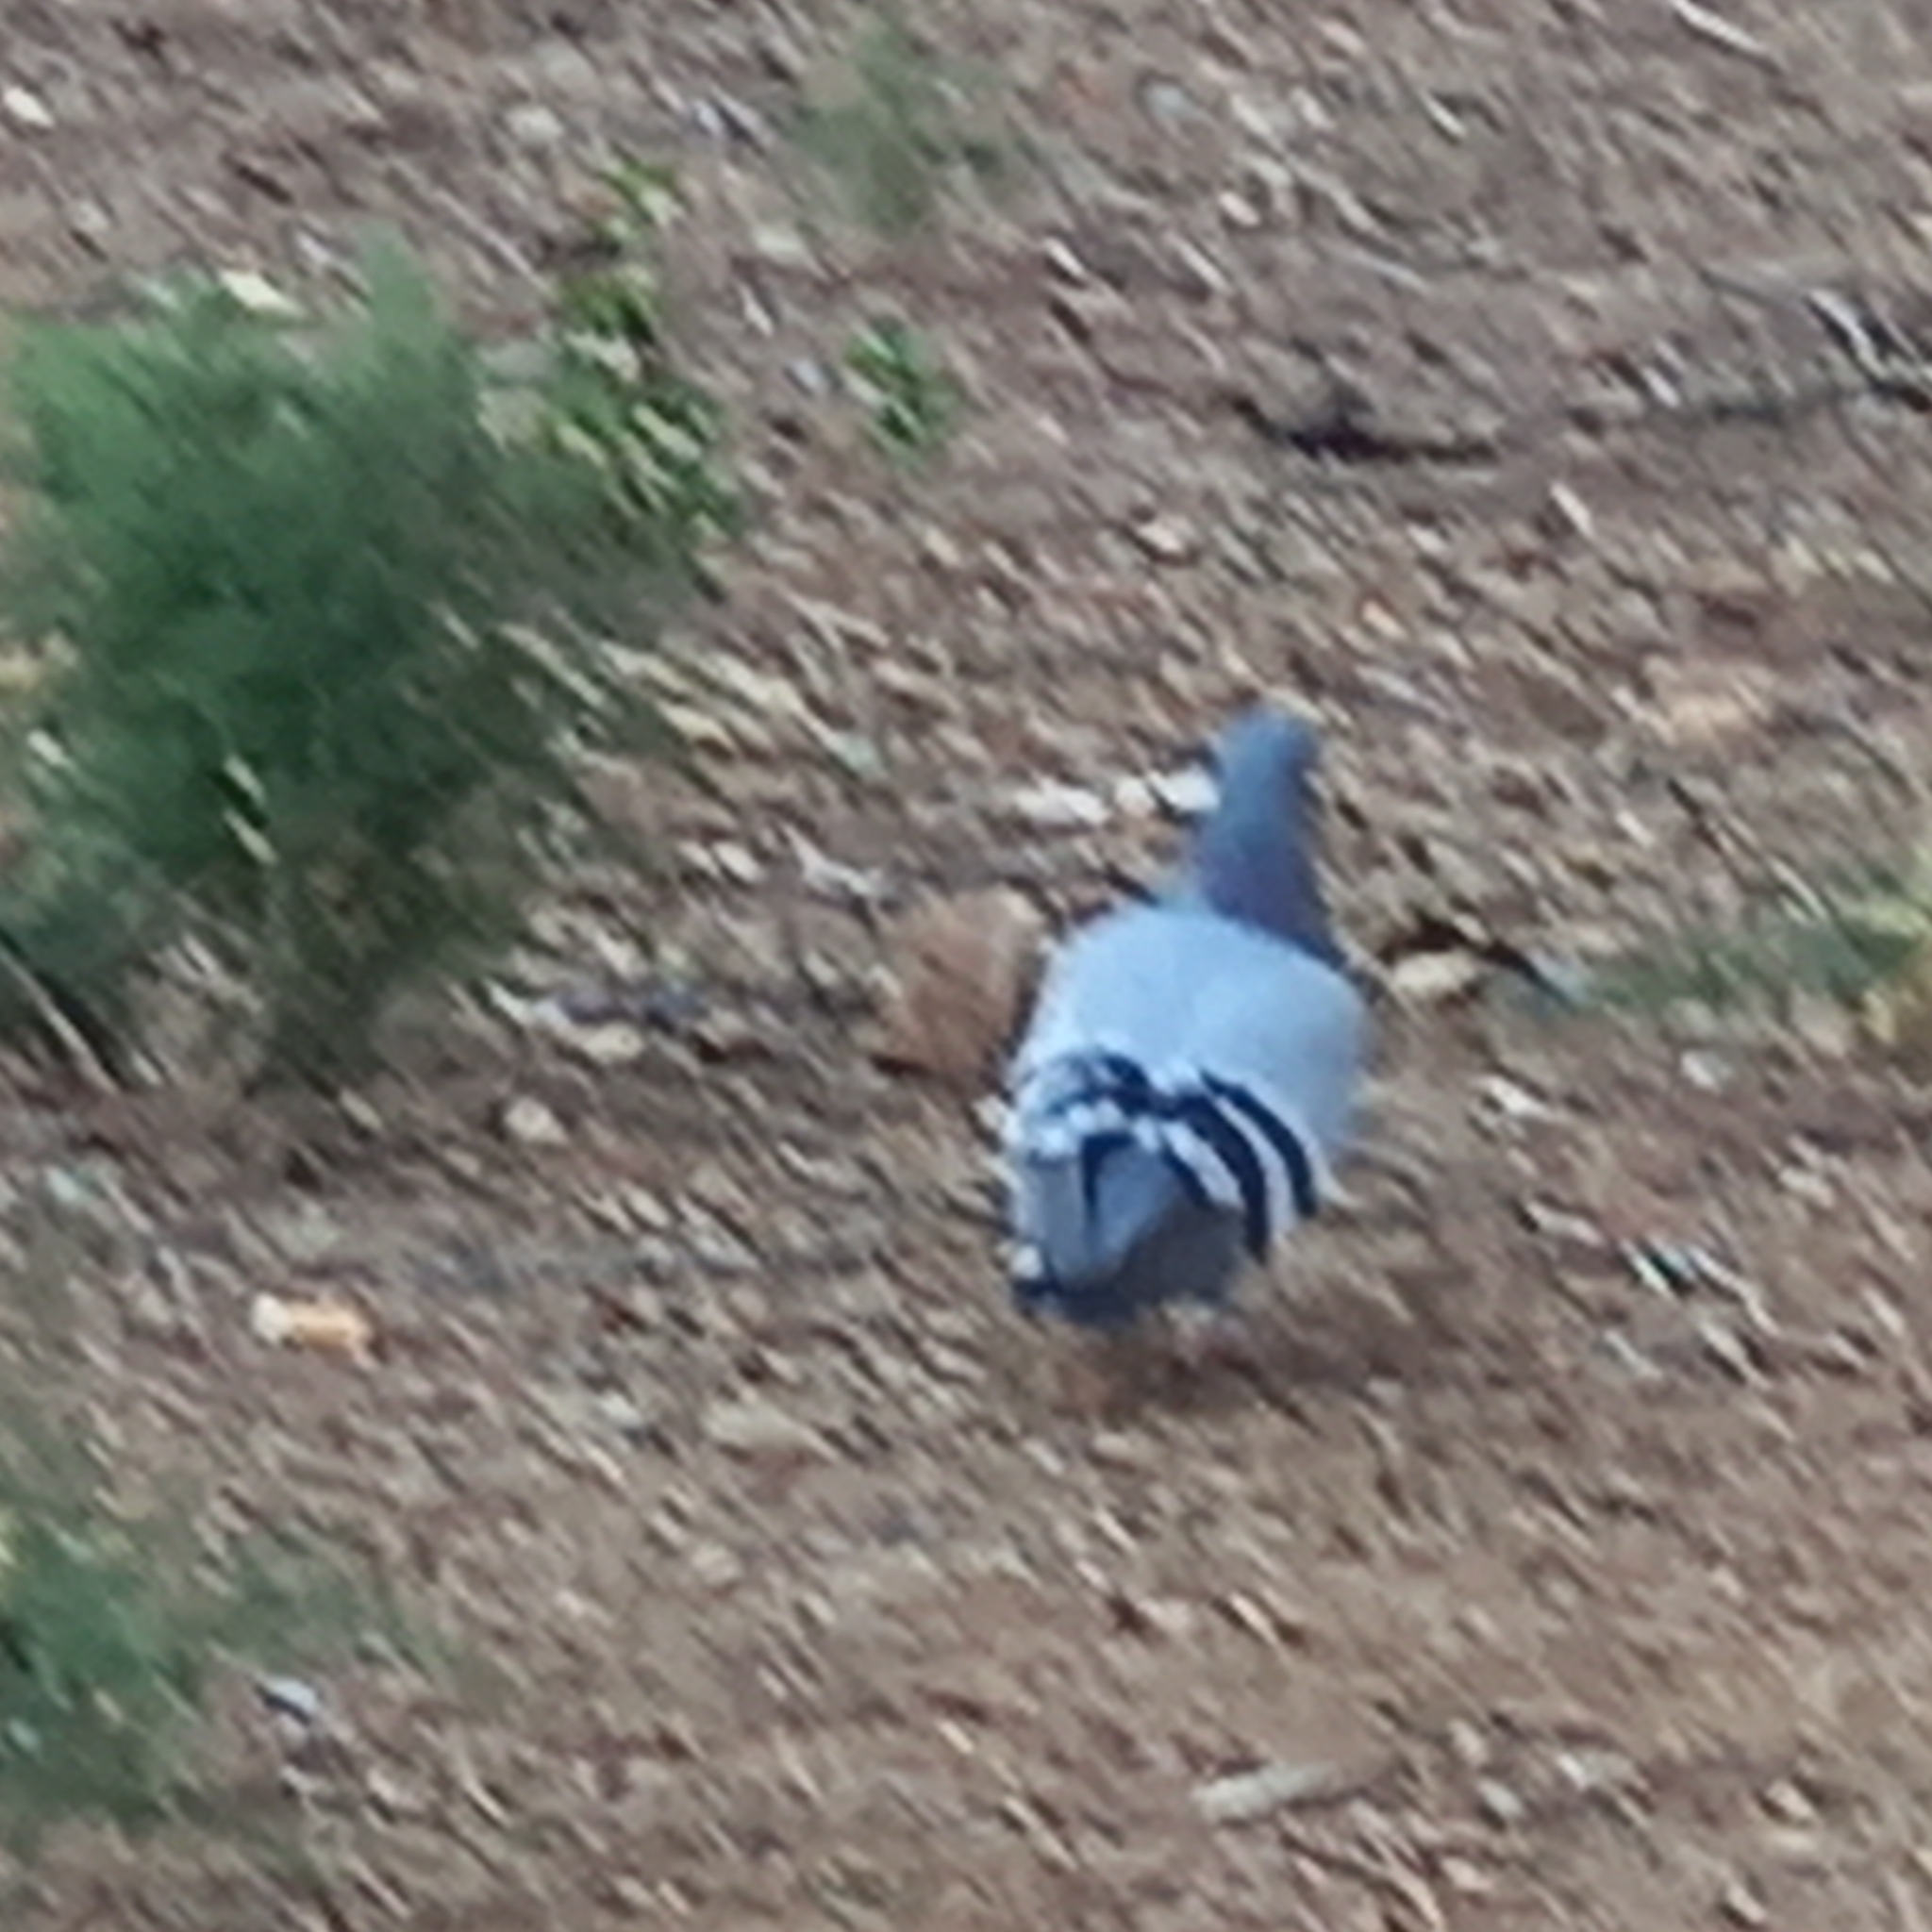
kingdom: Animalia
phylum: Chordata
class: Aves
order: Columbiformes
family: Columbidae
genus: Columba
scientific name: Columba livia
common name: Rock pigeon
